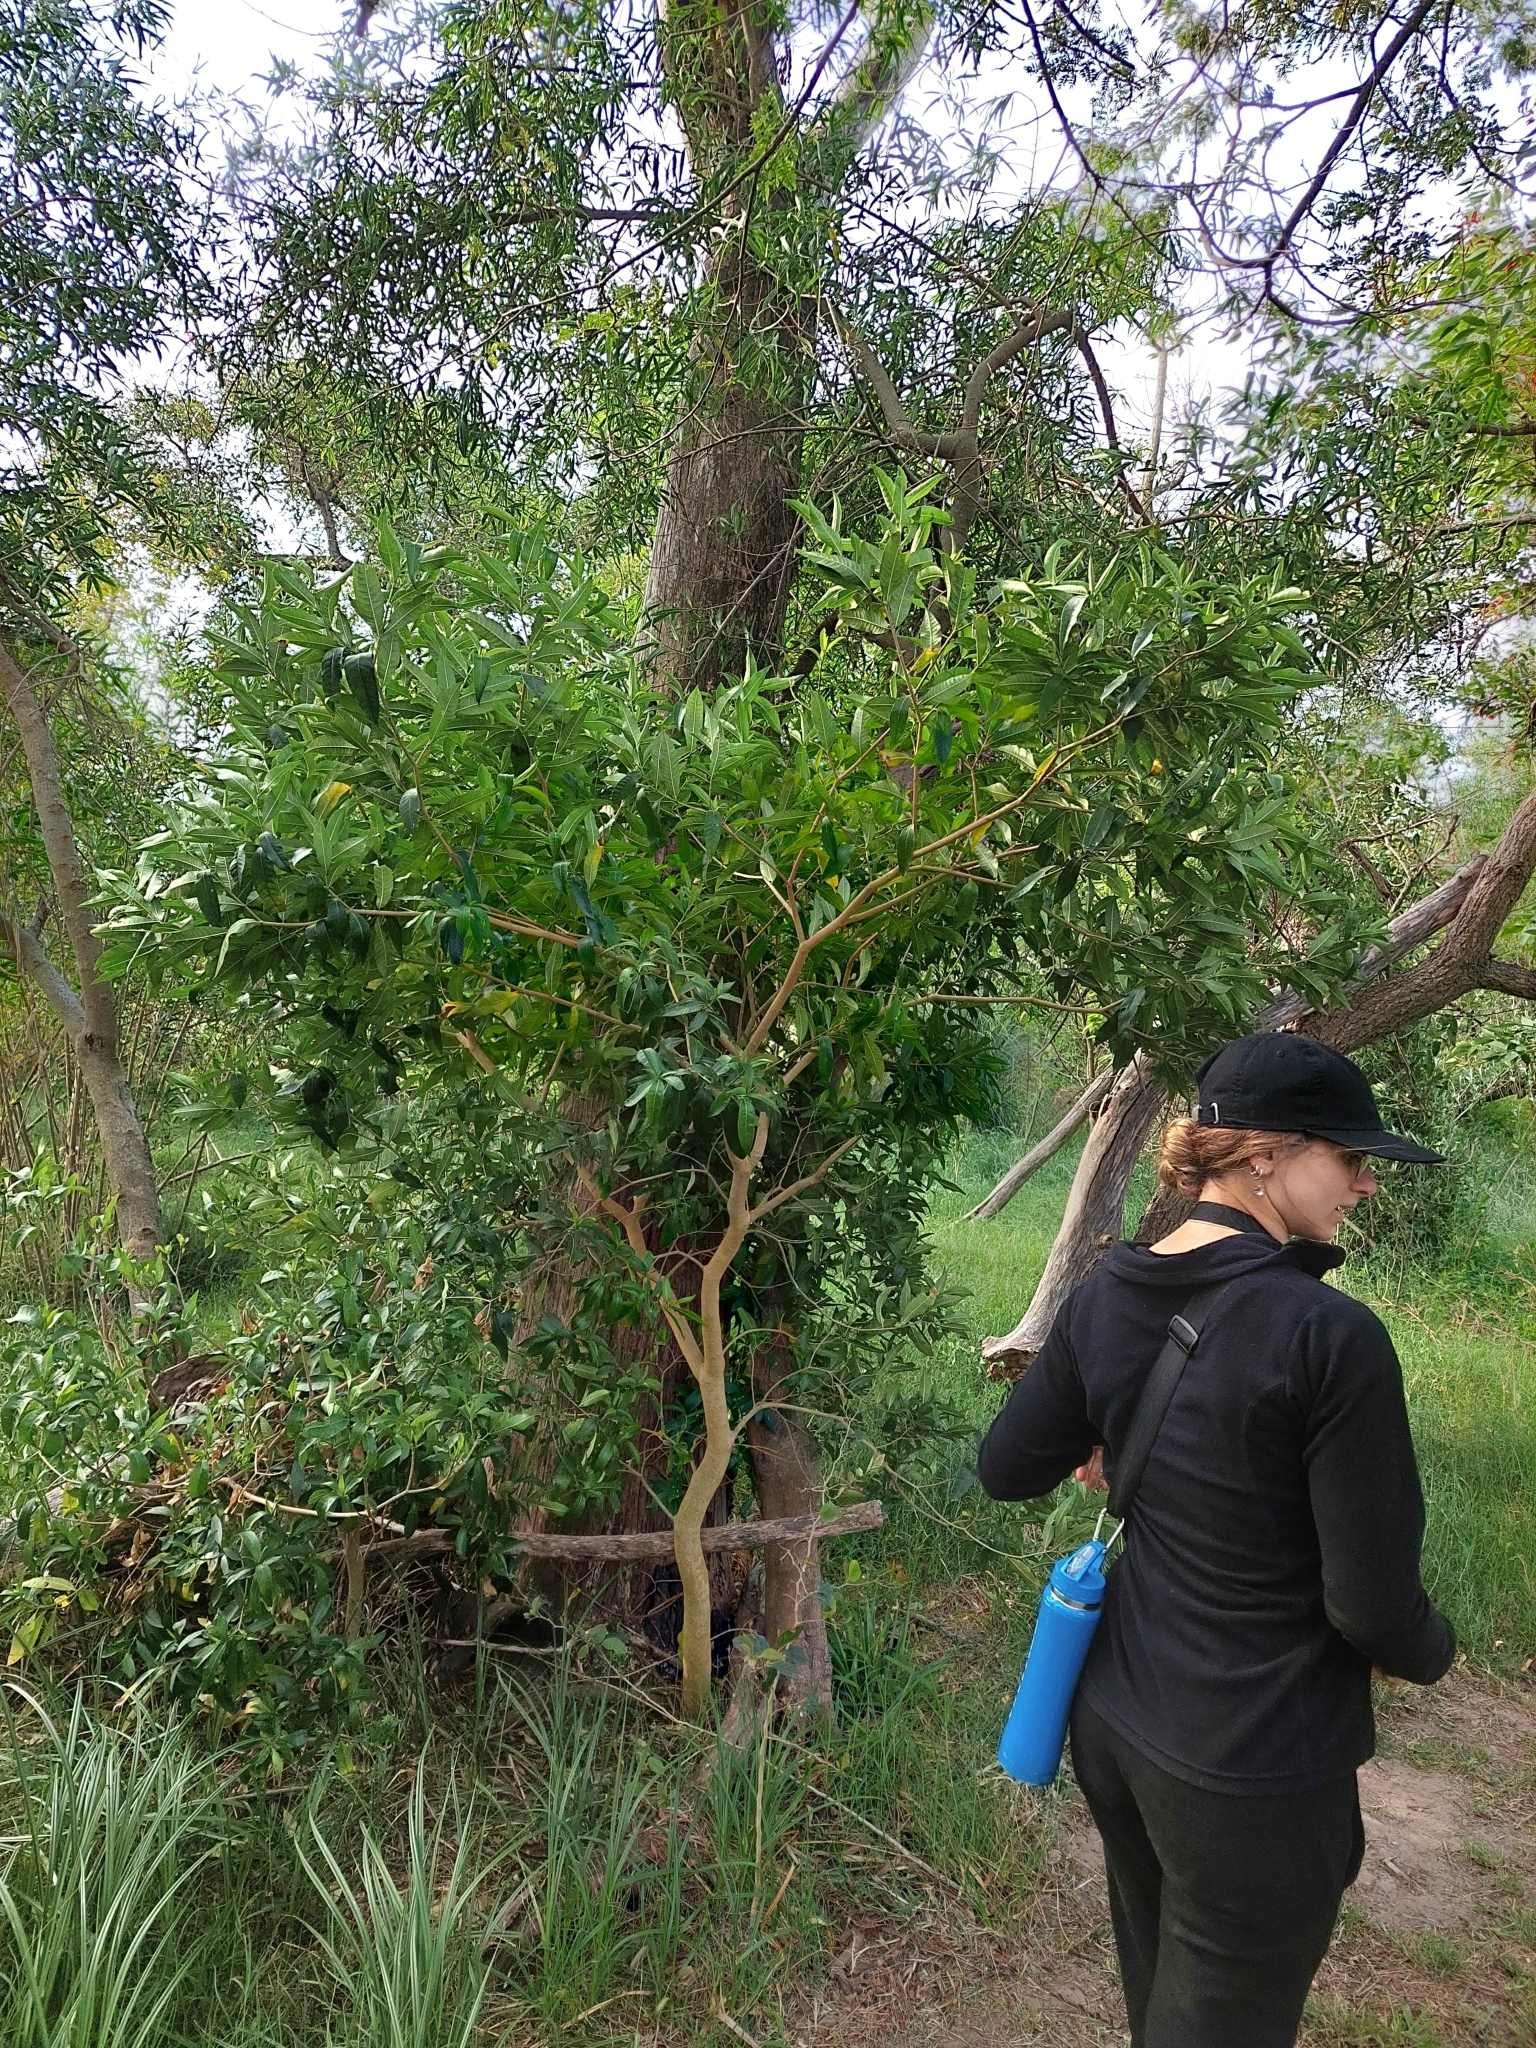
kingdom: Plantae
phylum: Tracheophyta
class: Magnoliopsida
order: Gentianales
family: Apocynaceae
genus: Tabernaemontana
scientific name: Tabernaemontana catharinensis
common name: Pinwheel-flower
